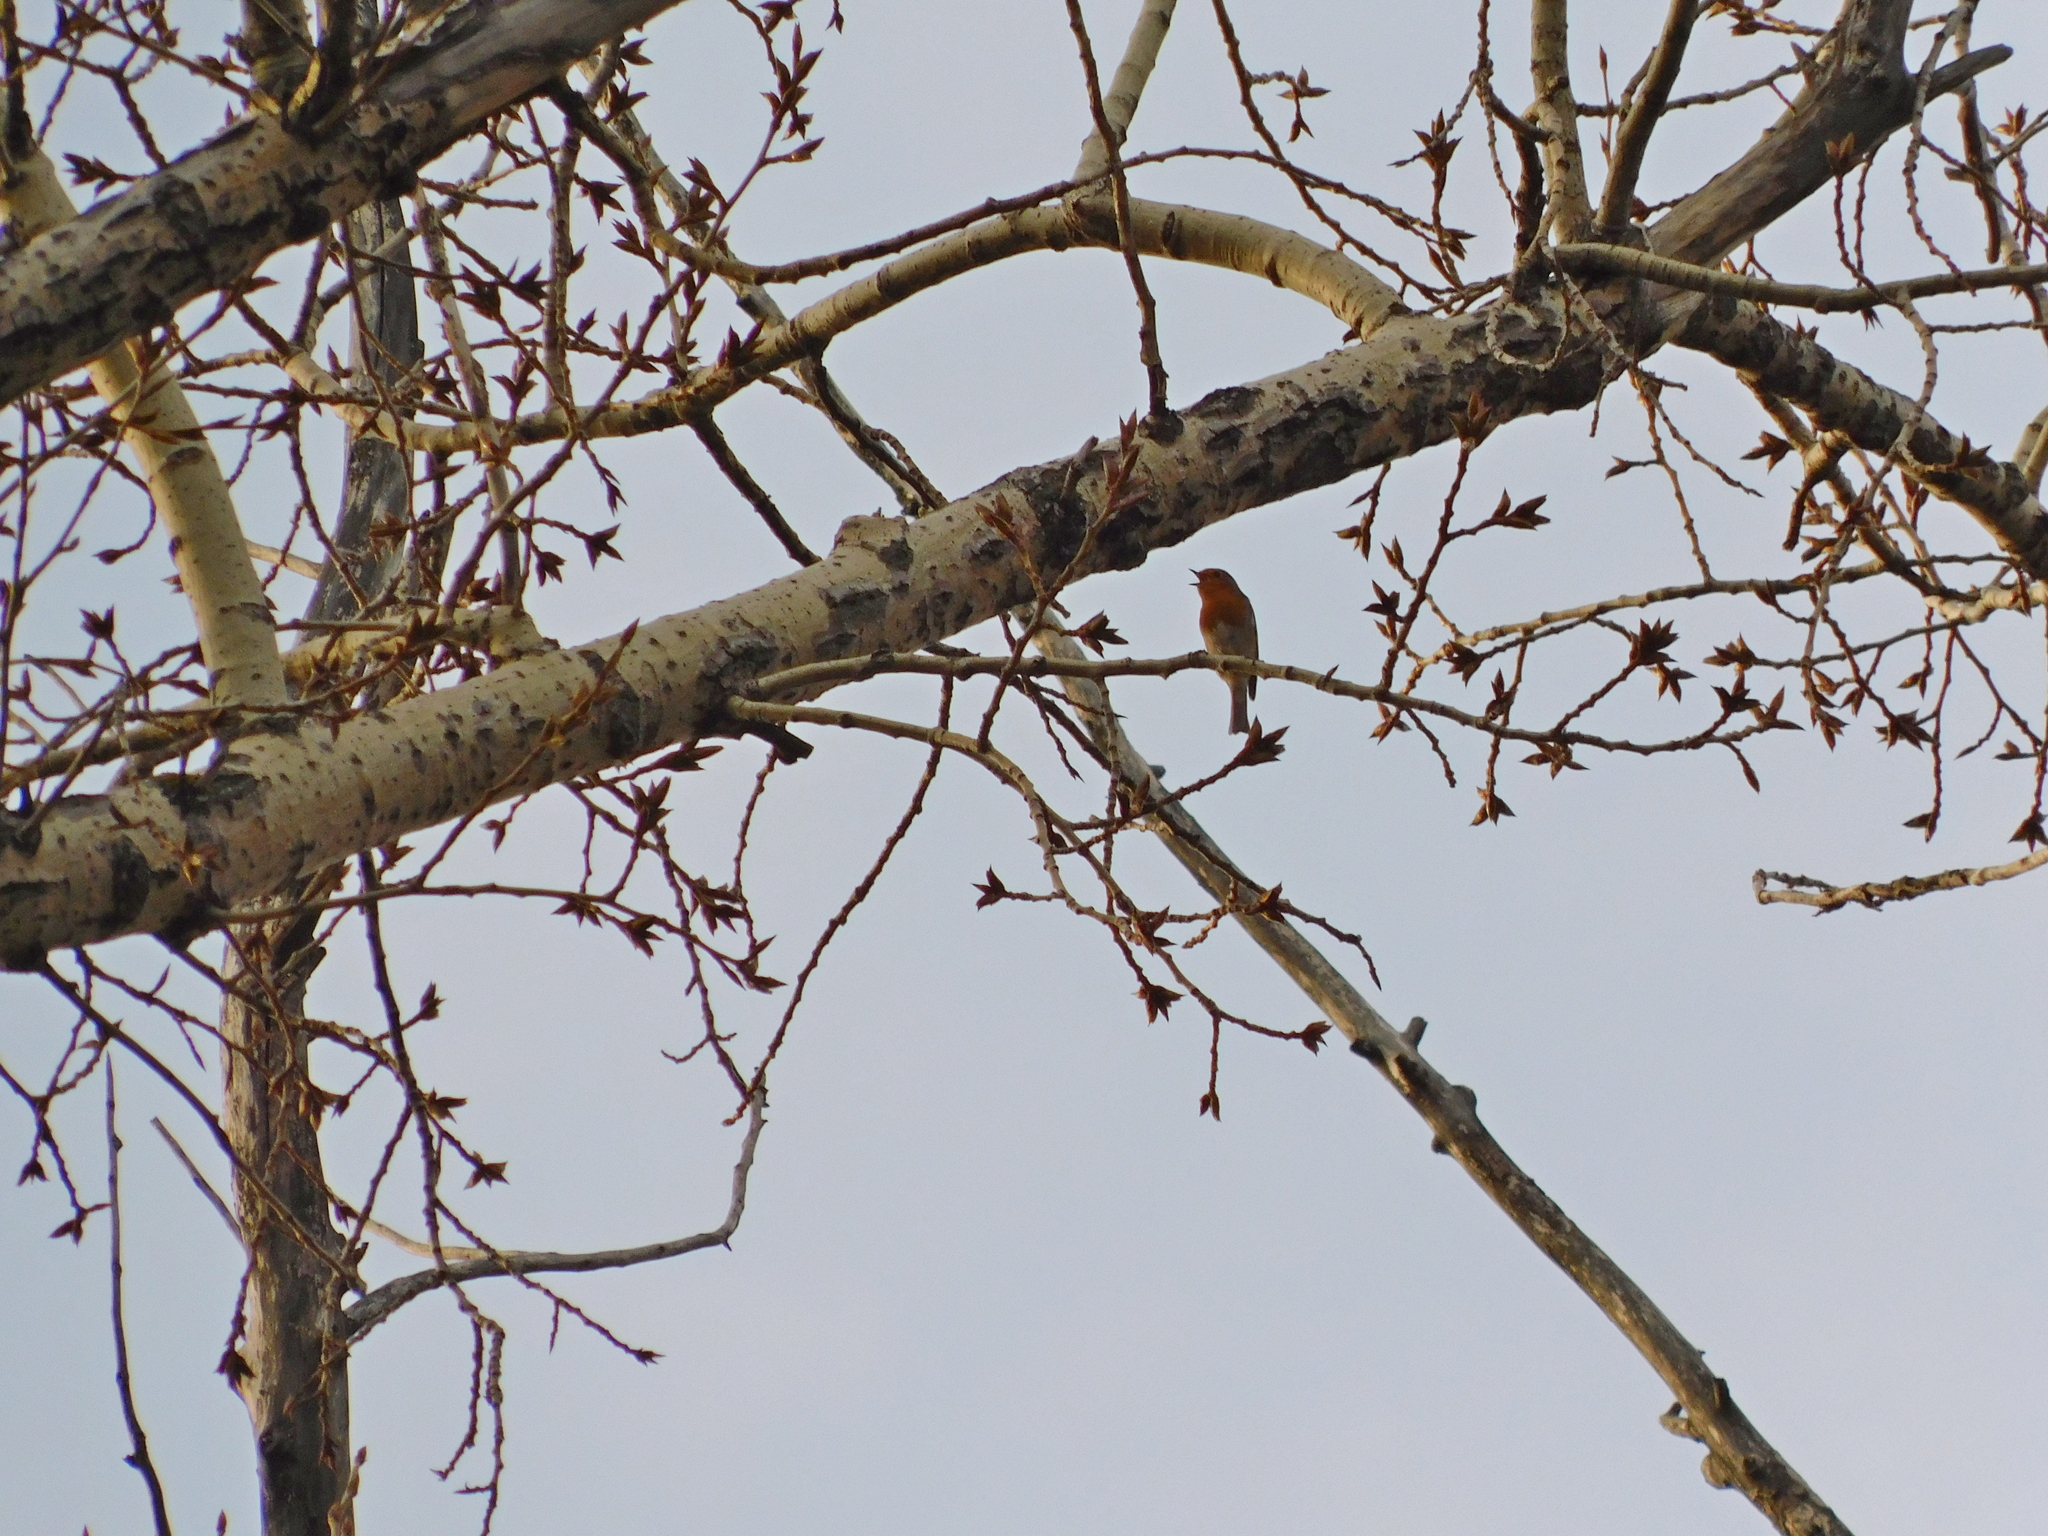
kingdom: Animalia
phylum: Chordata
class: Aves
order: Passeriformes
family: Muscicapidae
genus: Erithacus
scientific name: Erithacus rubecula
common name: European robin
